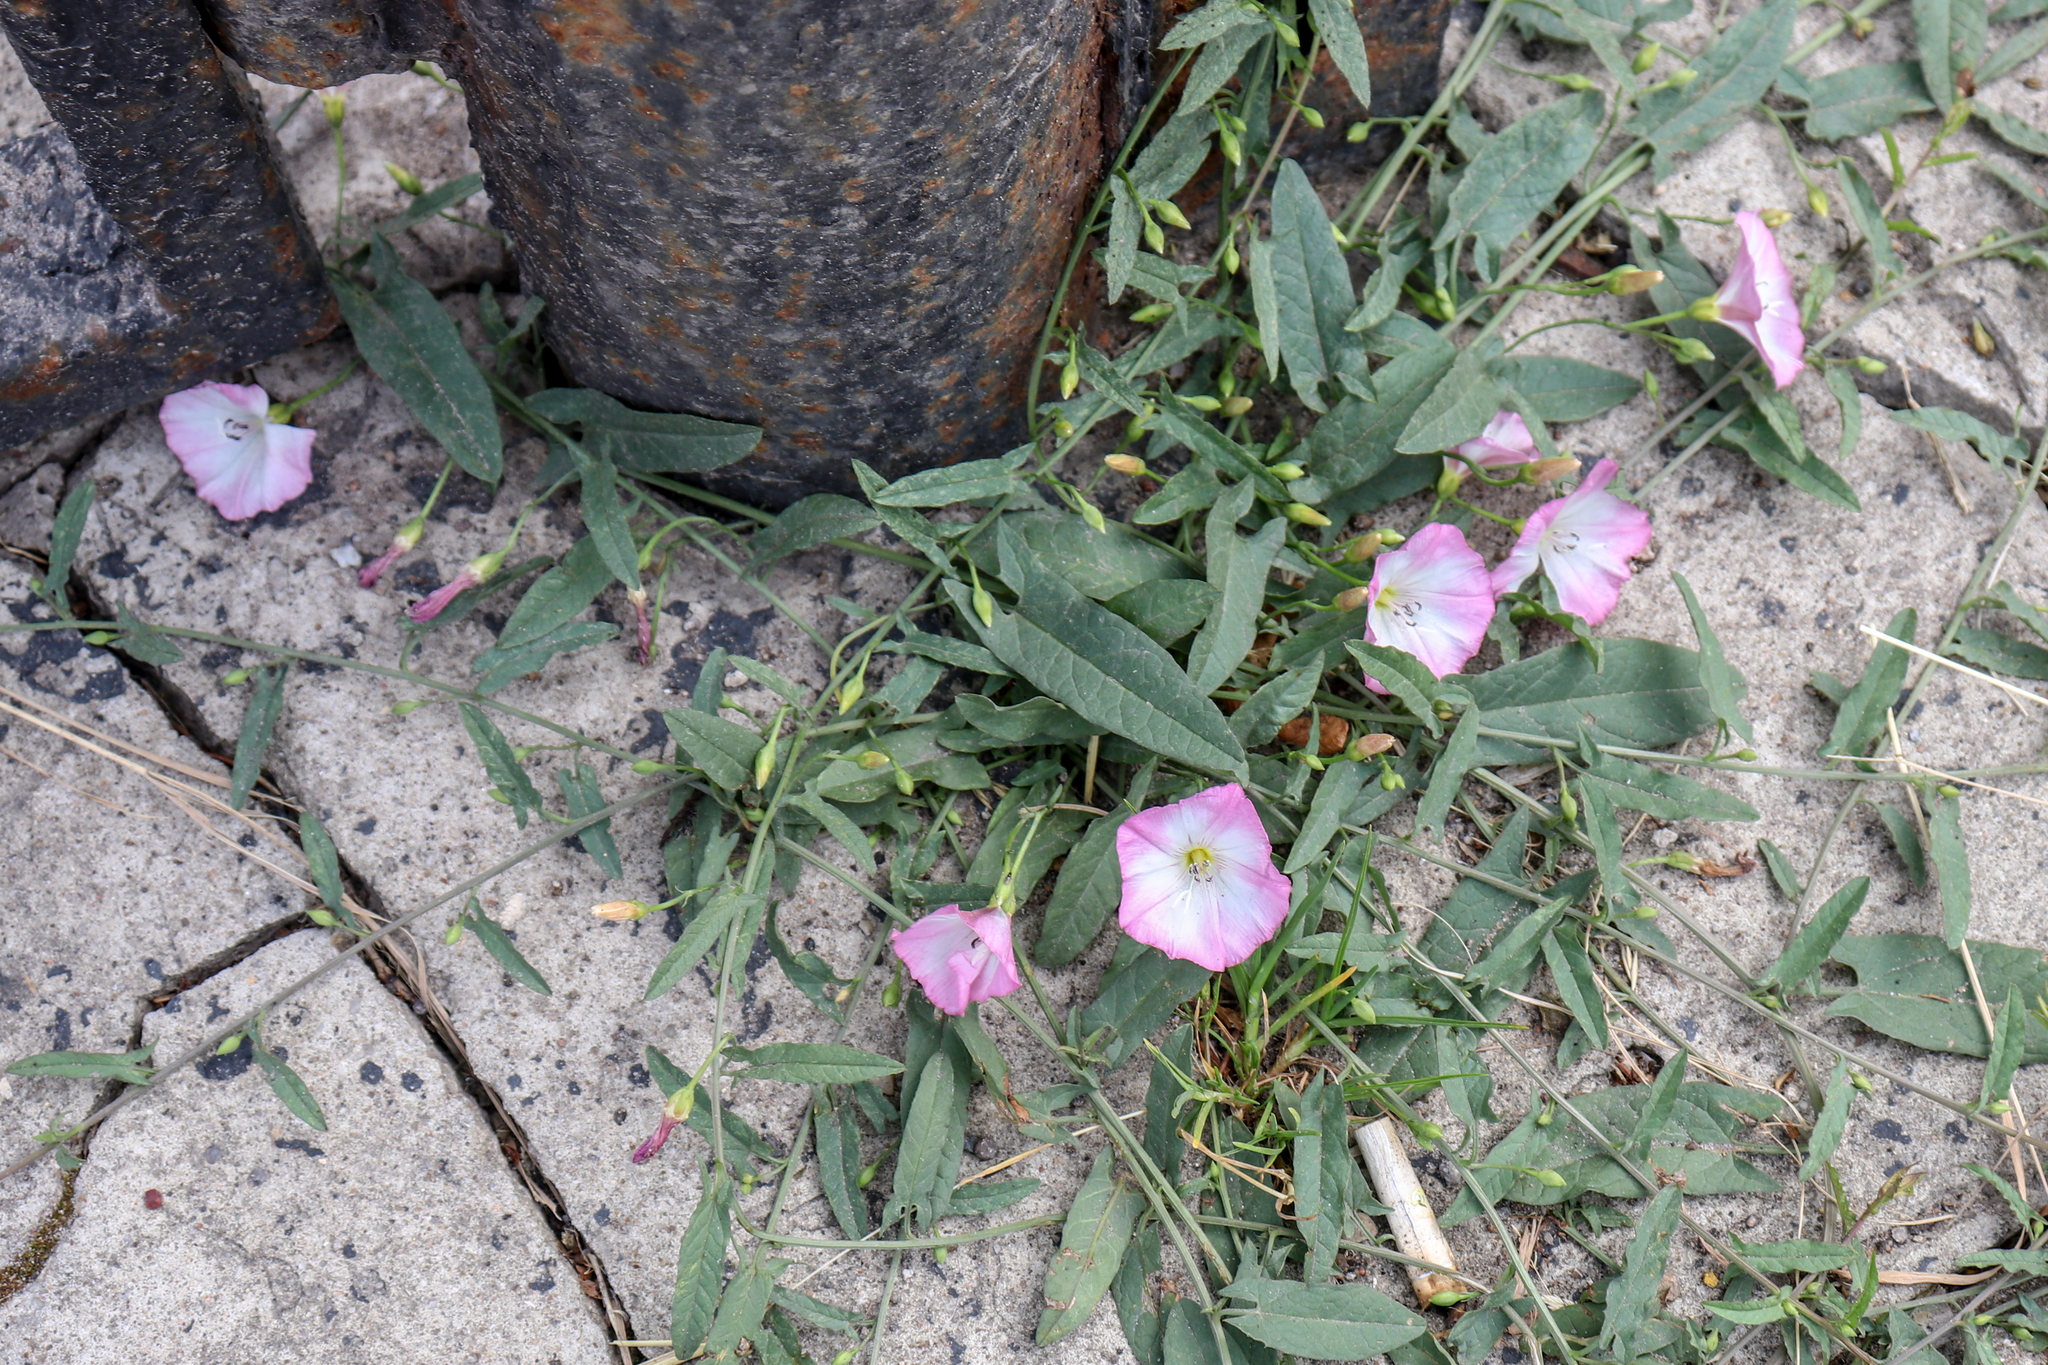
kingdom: Plantae
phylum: Tracheophyta
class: Magnoliopsida
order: Solanales
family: Convolvulaceae
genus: Convolvulus
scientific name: Convolvulus arvensis
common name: Field bindweed
